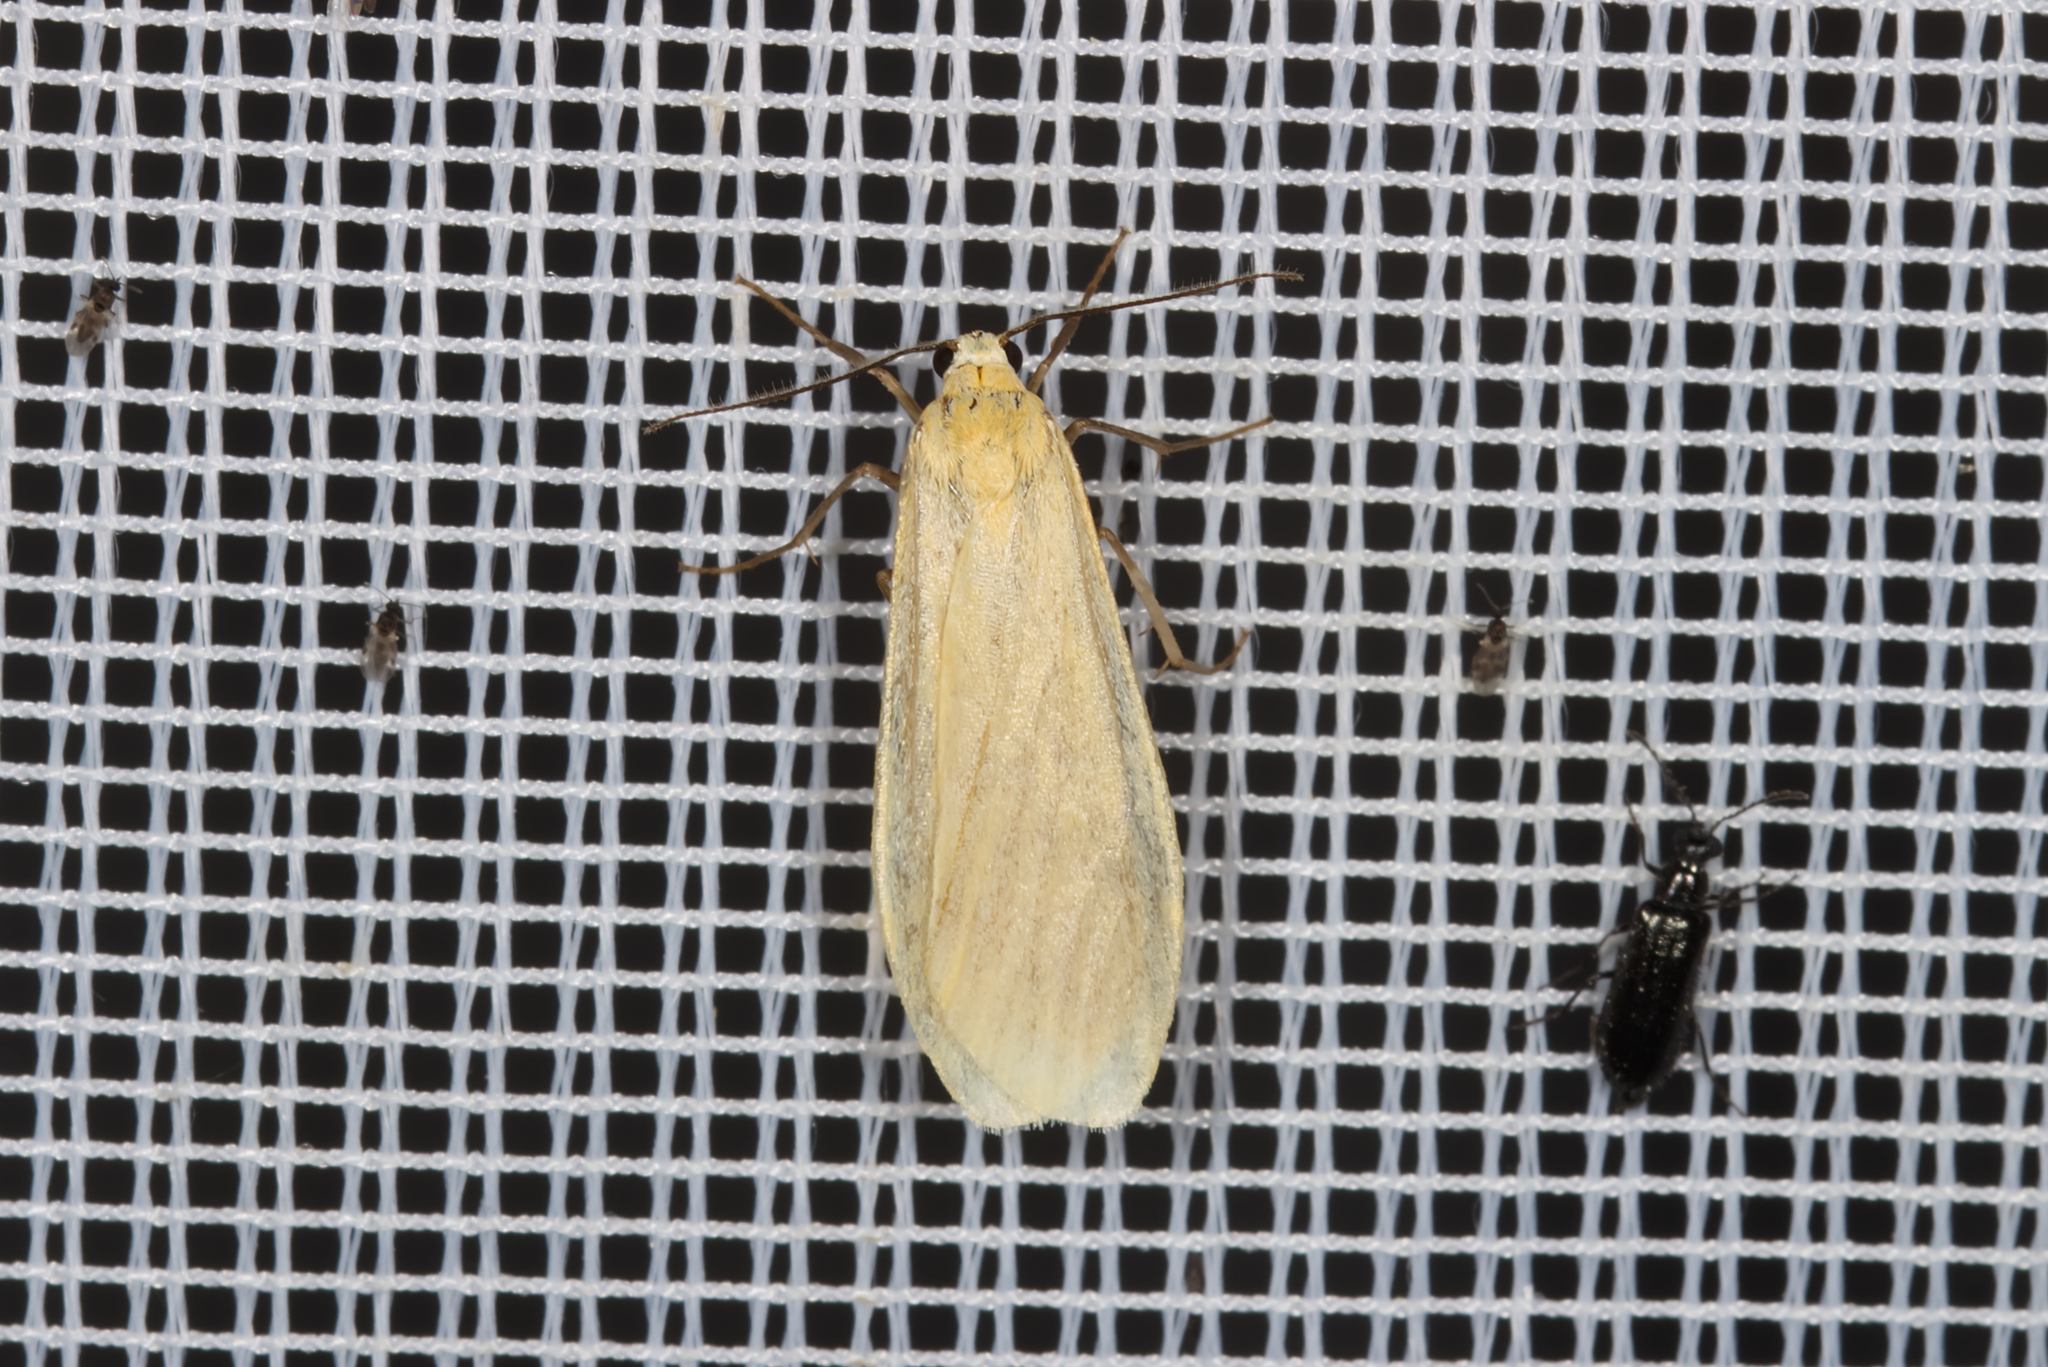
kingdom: Animalia
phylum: Arthropoda
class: Insecta
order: Lepidoptera
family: Erebidae
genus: Wittia
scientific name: Wittia sororcula
